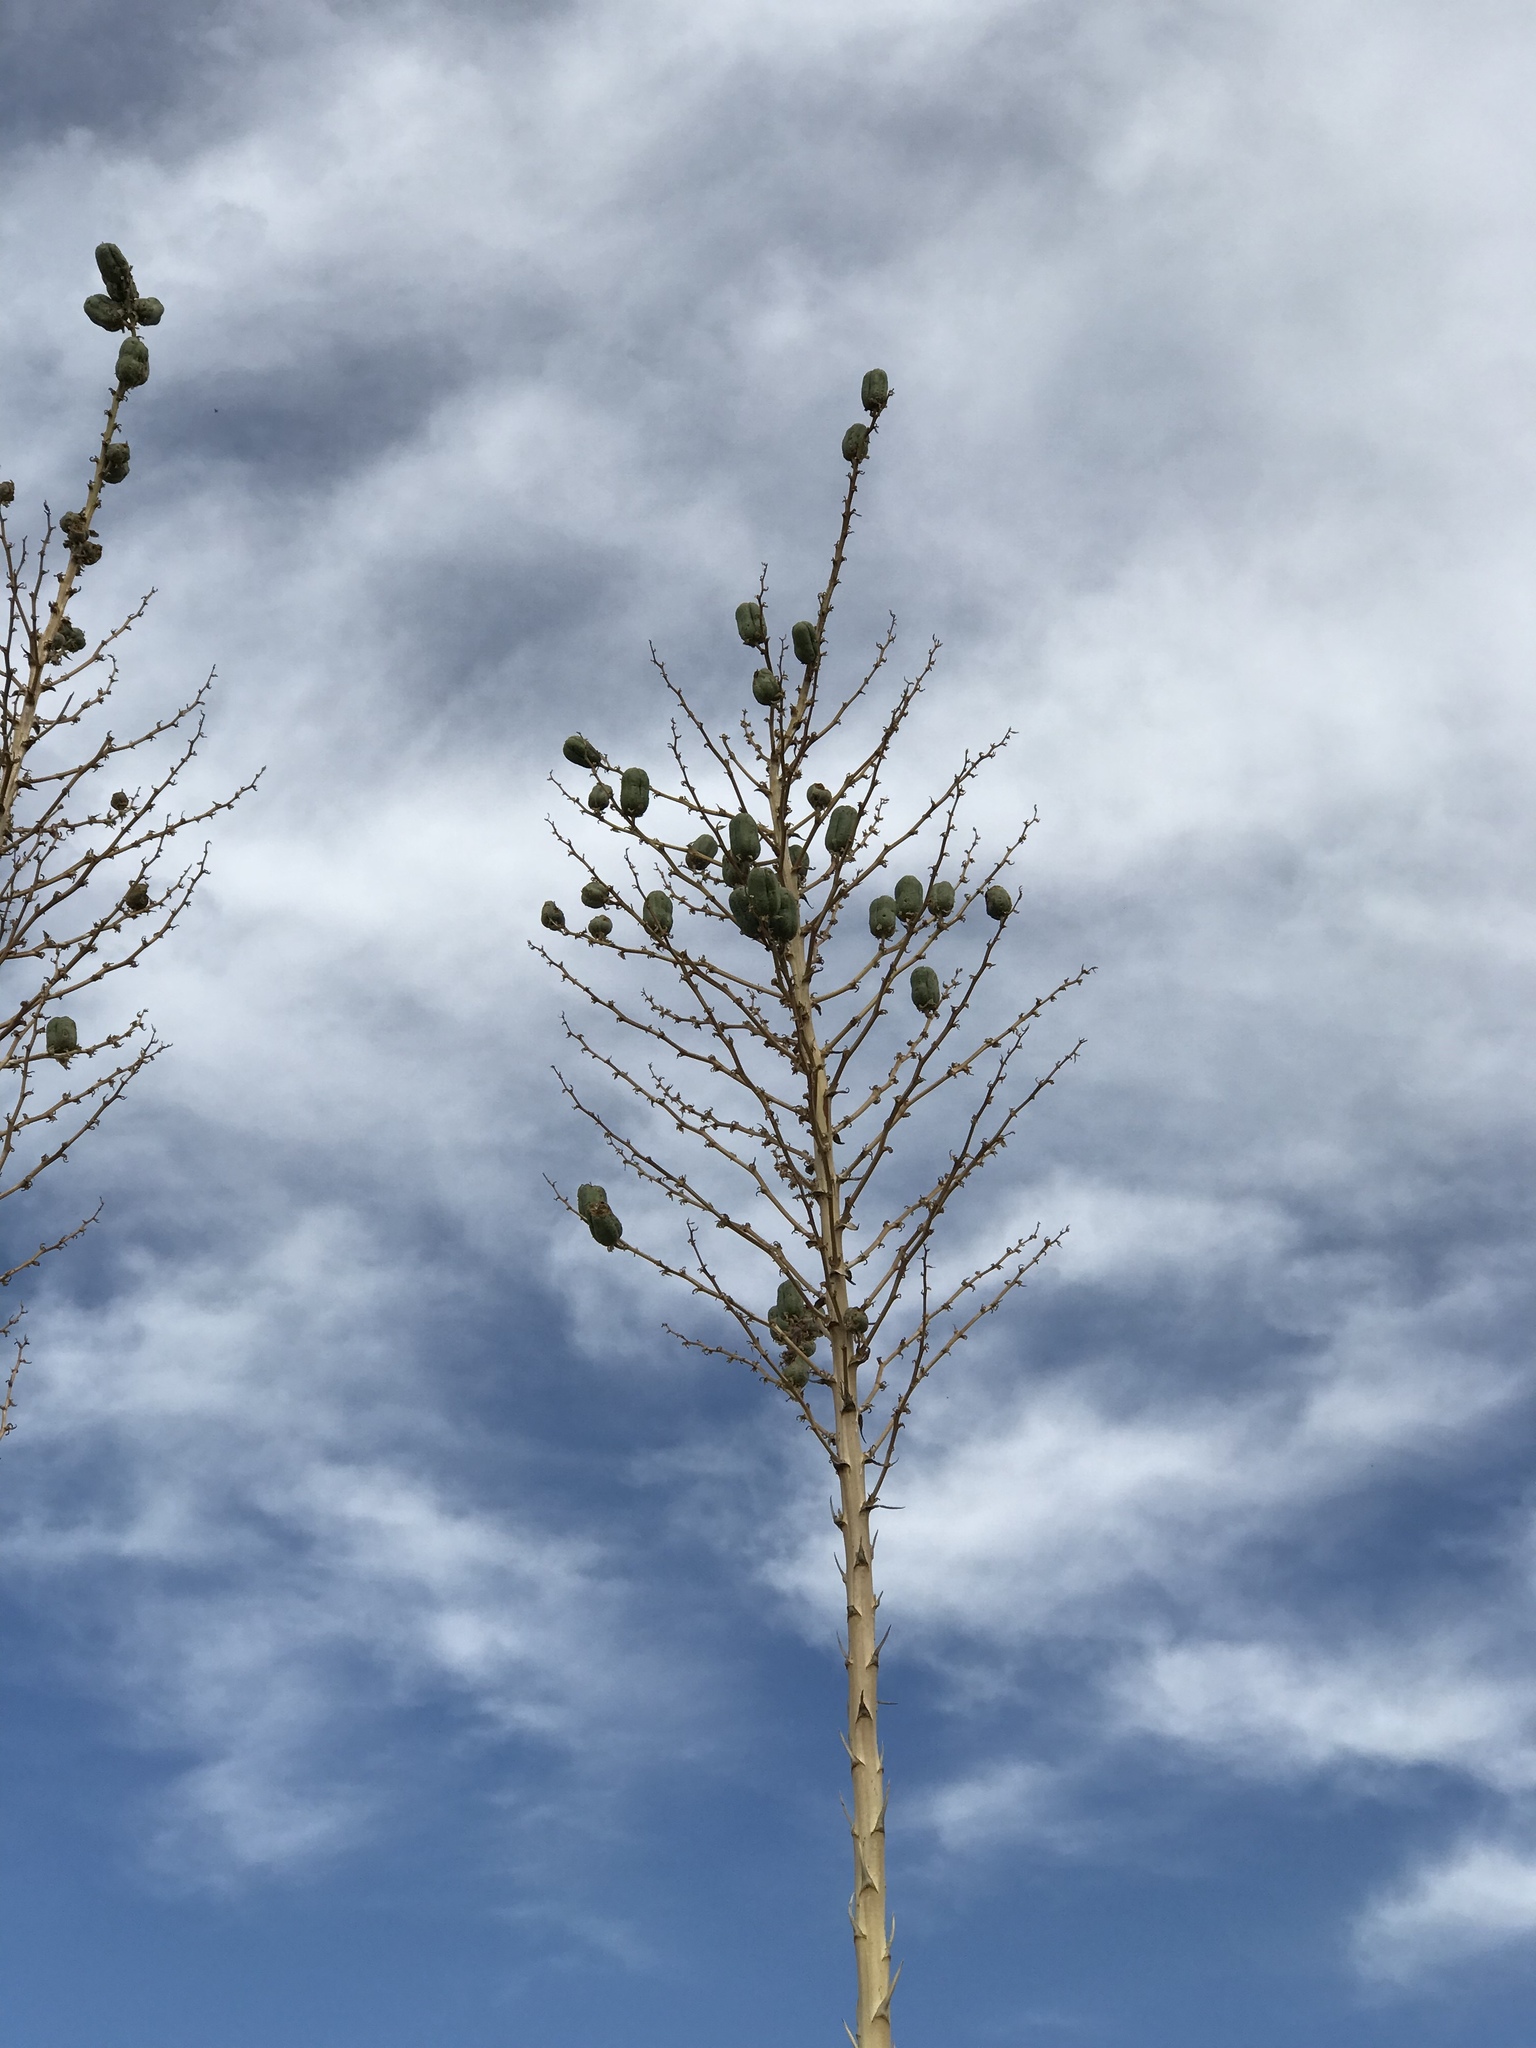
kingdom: Plantae
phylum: Tracheophyta
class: Liliopsida
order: Asparagales
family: Asparagaceae
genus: Yucca
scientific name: Yucca elata
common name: Palmella
